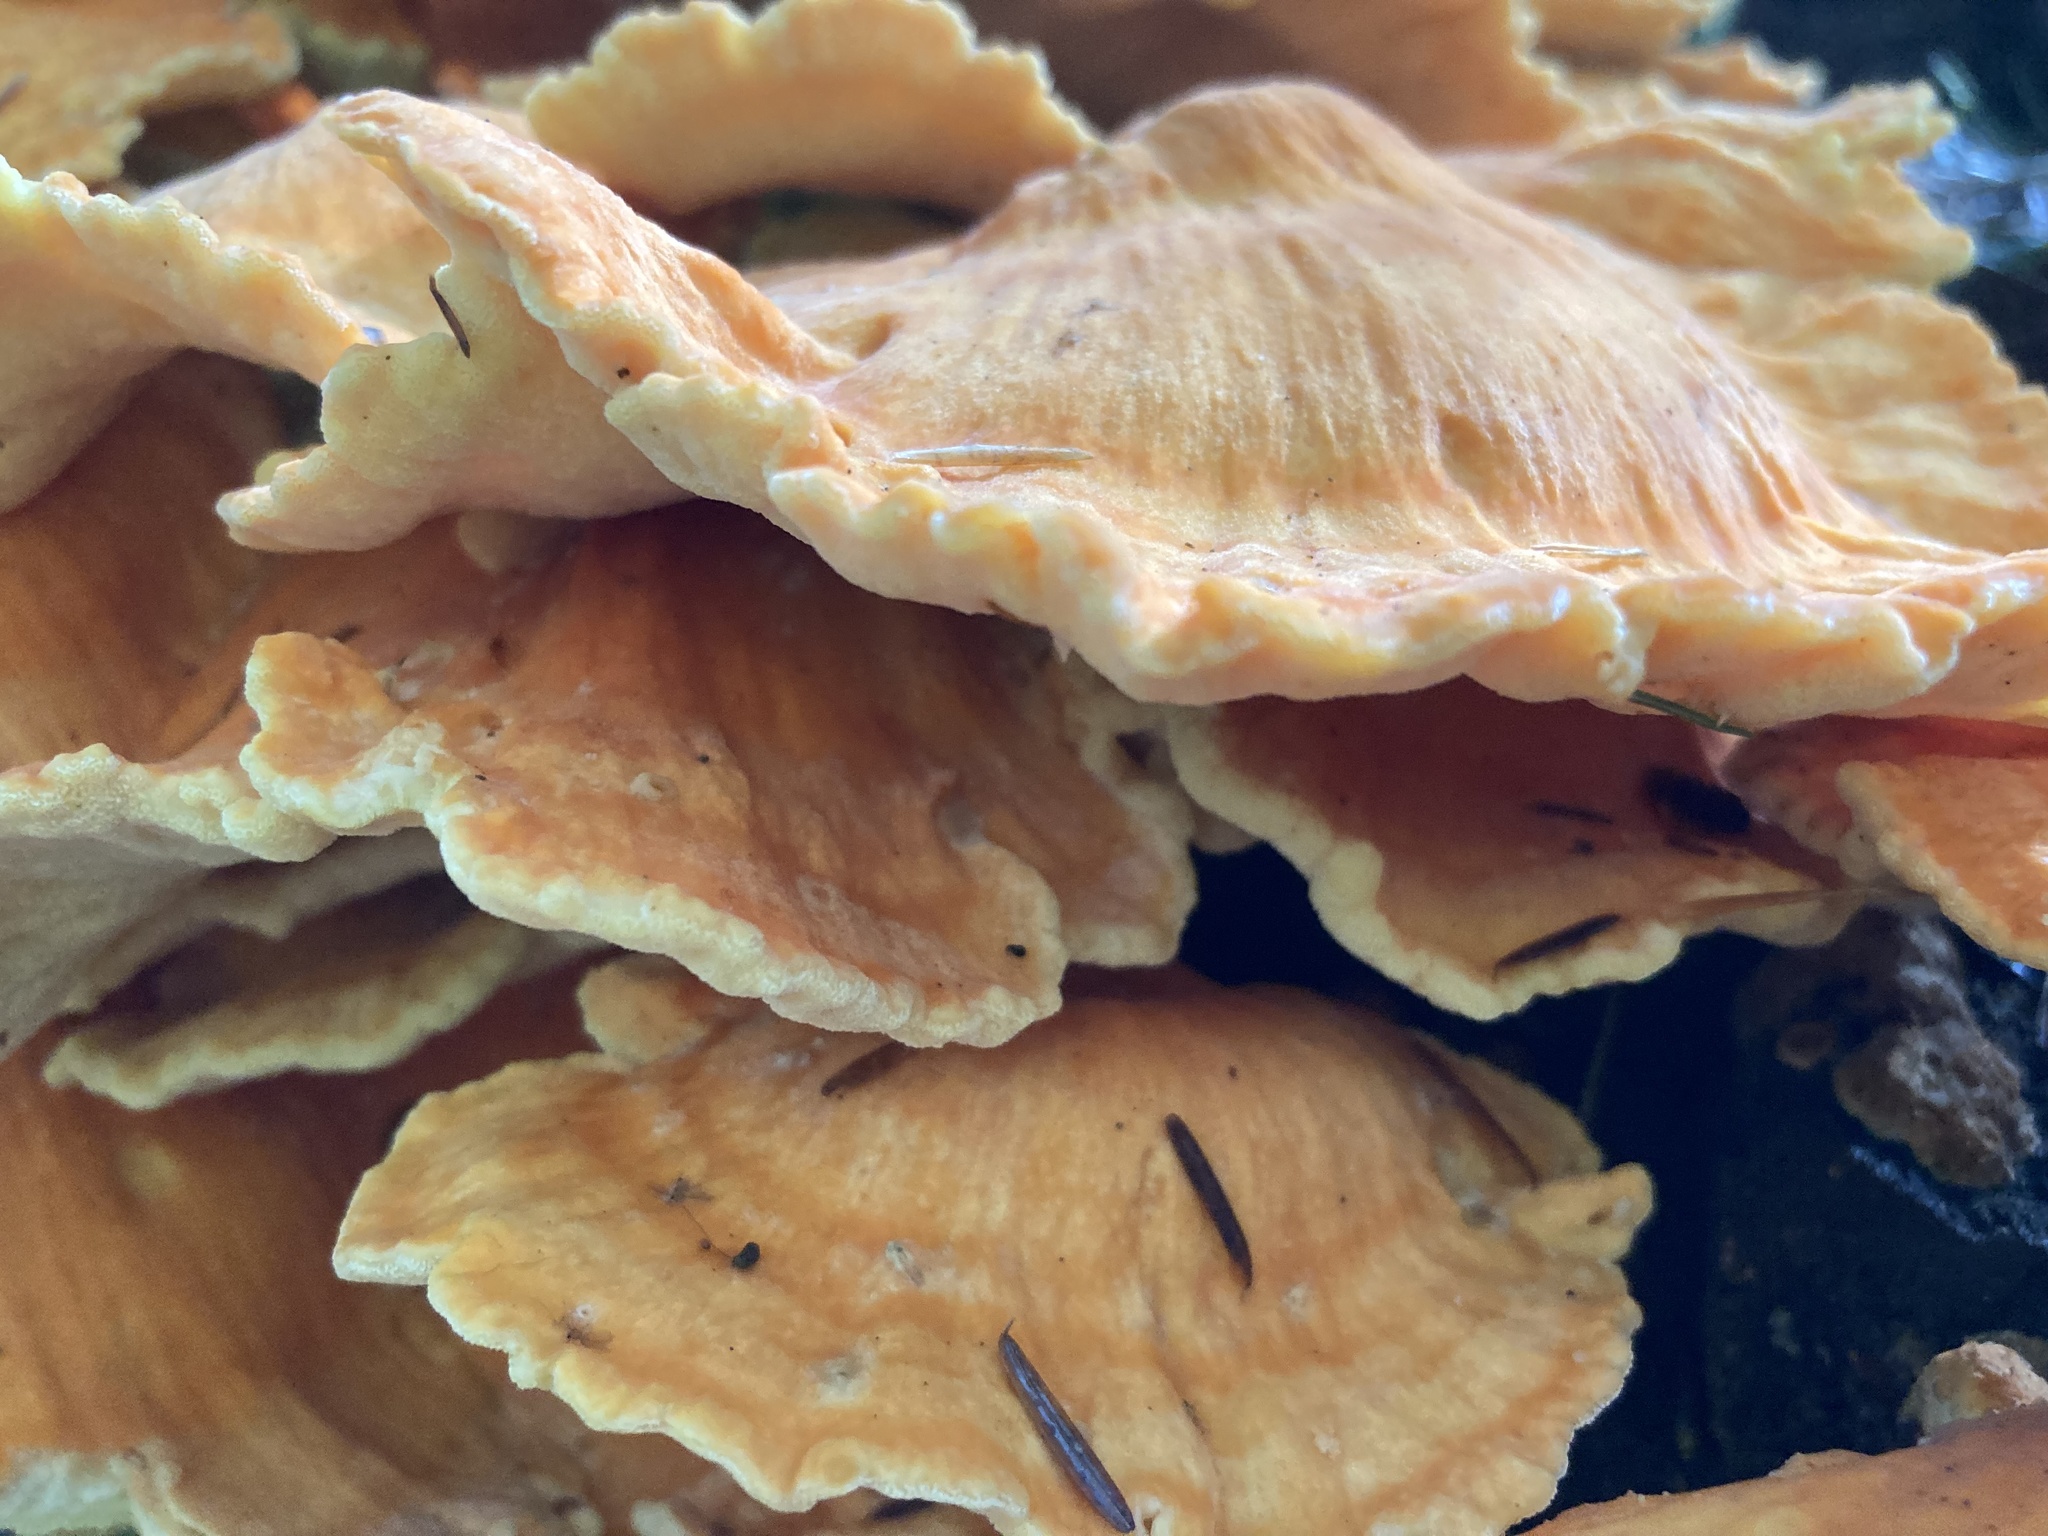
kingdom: Fungi
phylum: Basidiomycota
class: Agaricomycetes
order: Polyporales
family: Laetiporaceae
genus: Laetiporus
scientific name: Laetiporus huroniensis
